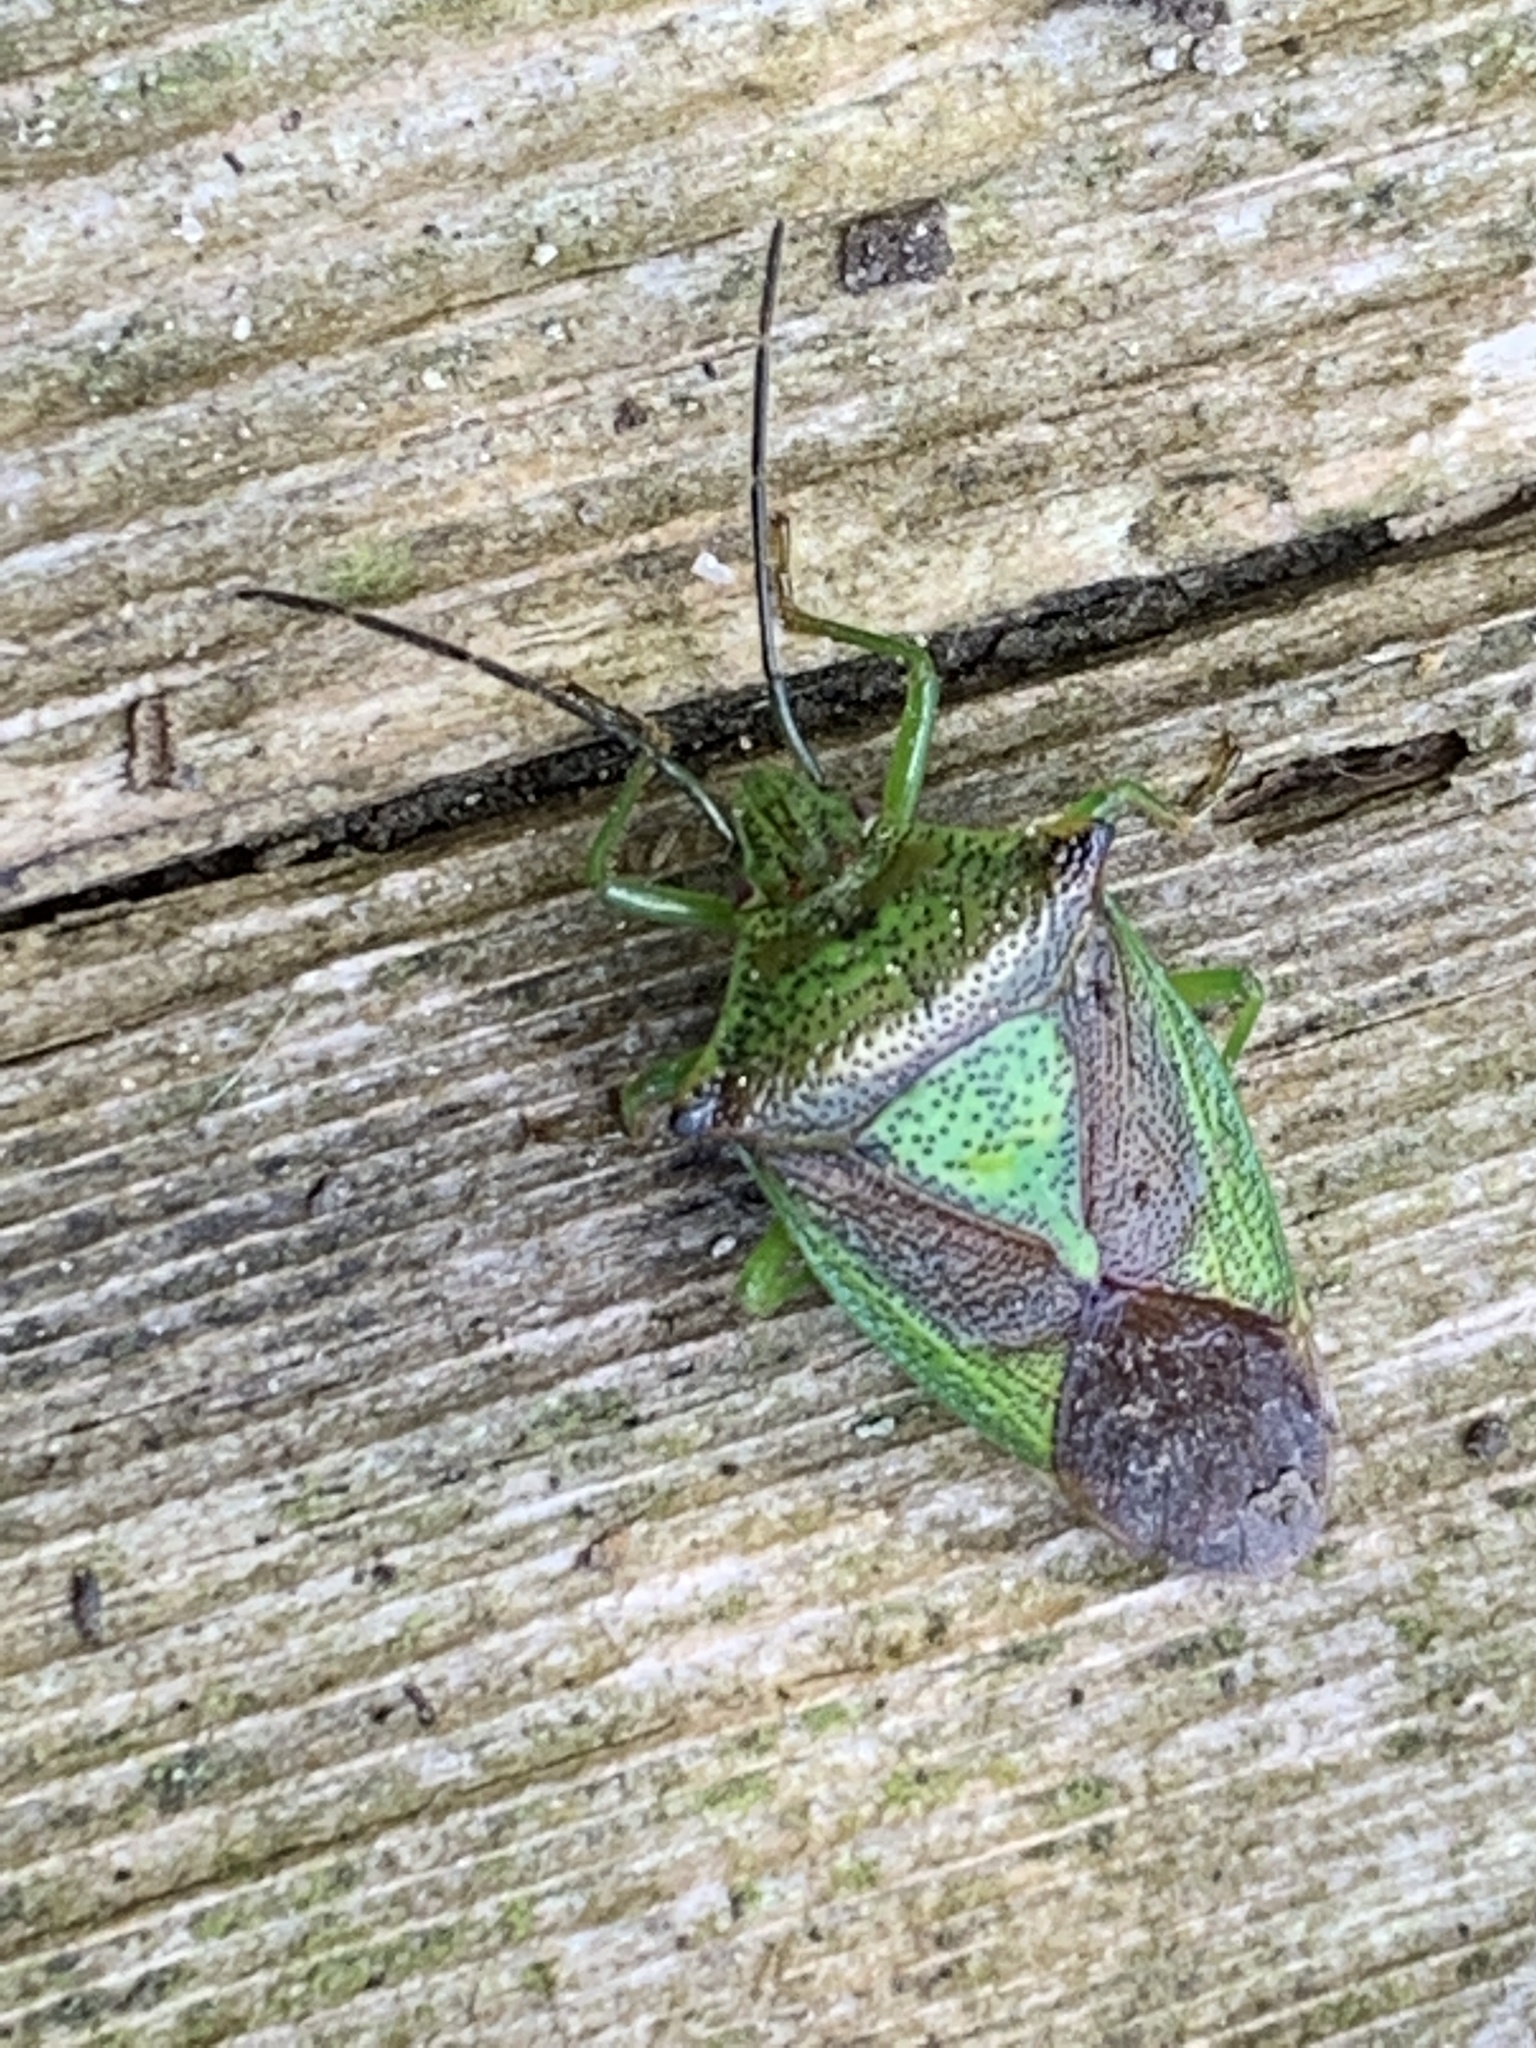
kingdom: Animalia
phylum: Arthropoda
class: Insecta
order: Hemiptera
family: Acanthosomatidae
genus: Acanthosoma
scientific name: Acanthosoma haemorrhoidale
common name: Hawthorn shieldbug
